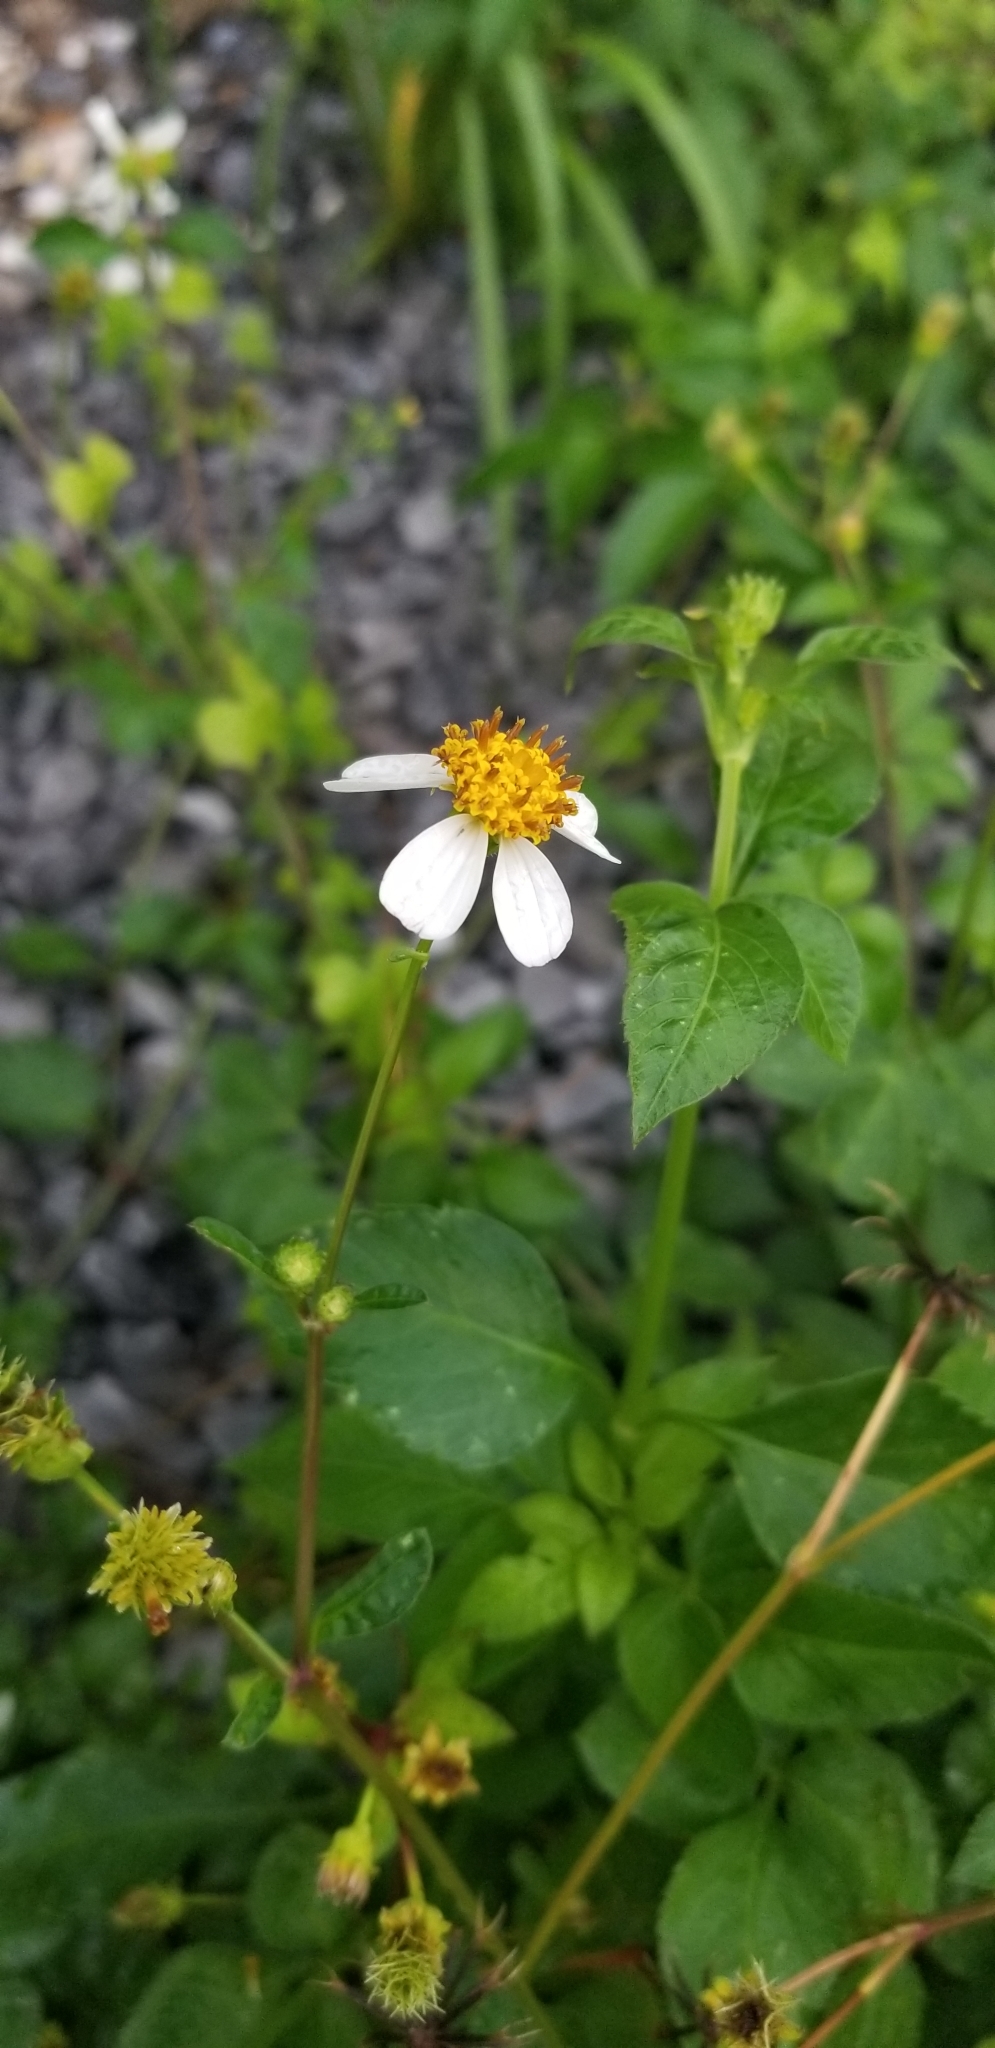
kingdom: Plantae
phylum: Tracheophyta
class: Magnoliopsida
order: Asterales
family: Asteraceae
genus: Bidens
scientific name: Bidens alba
